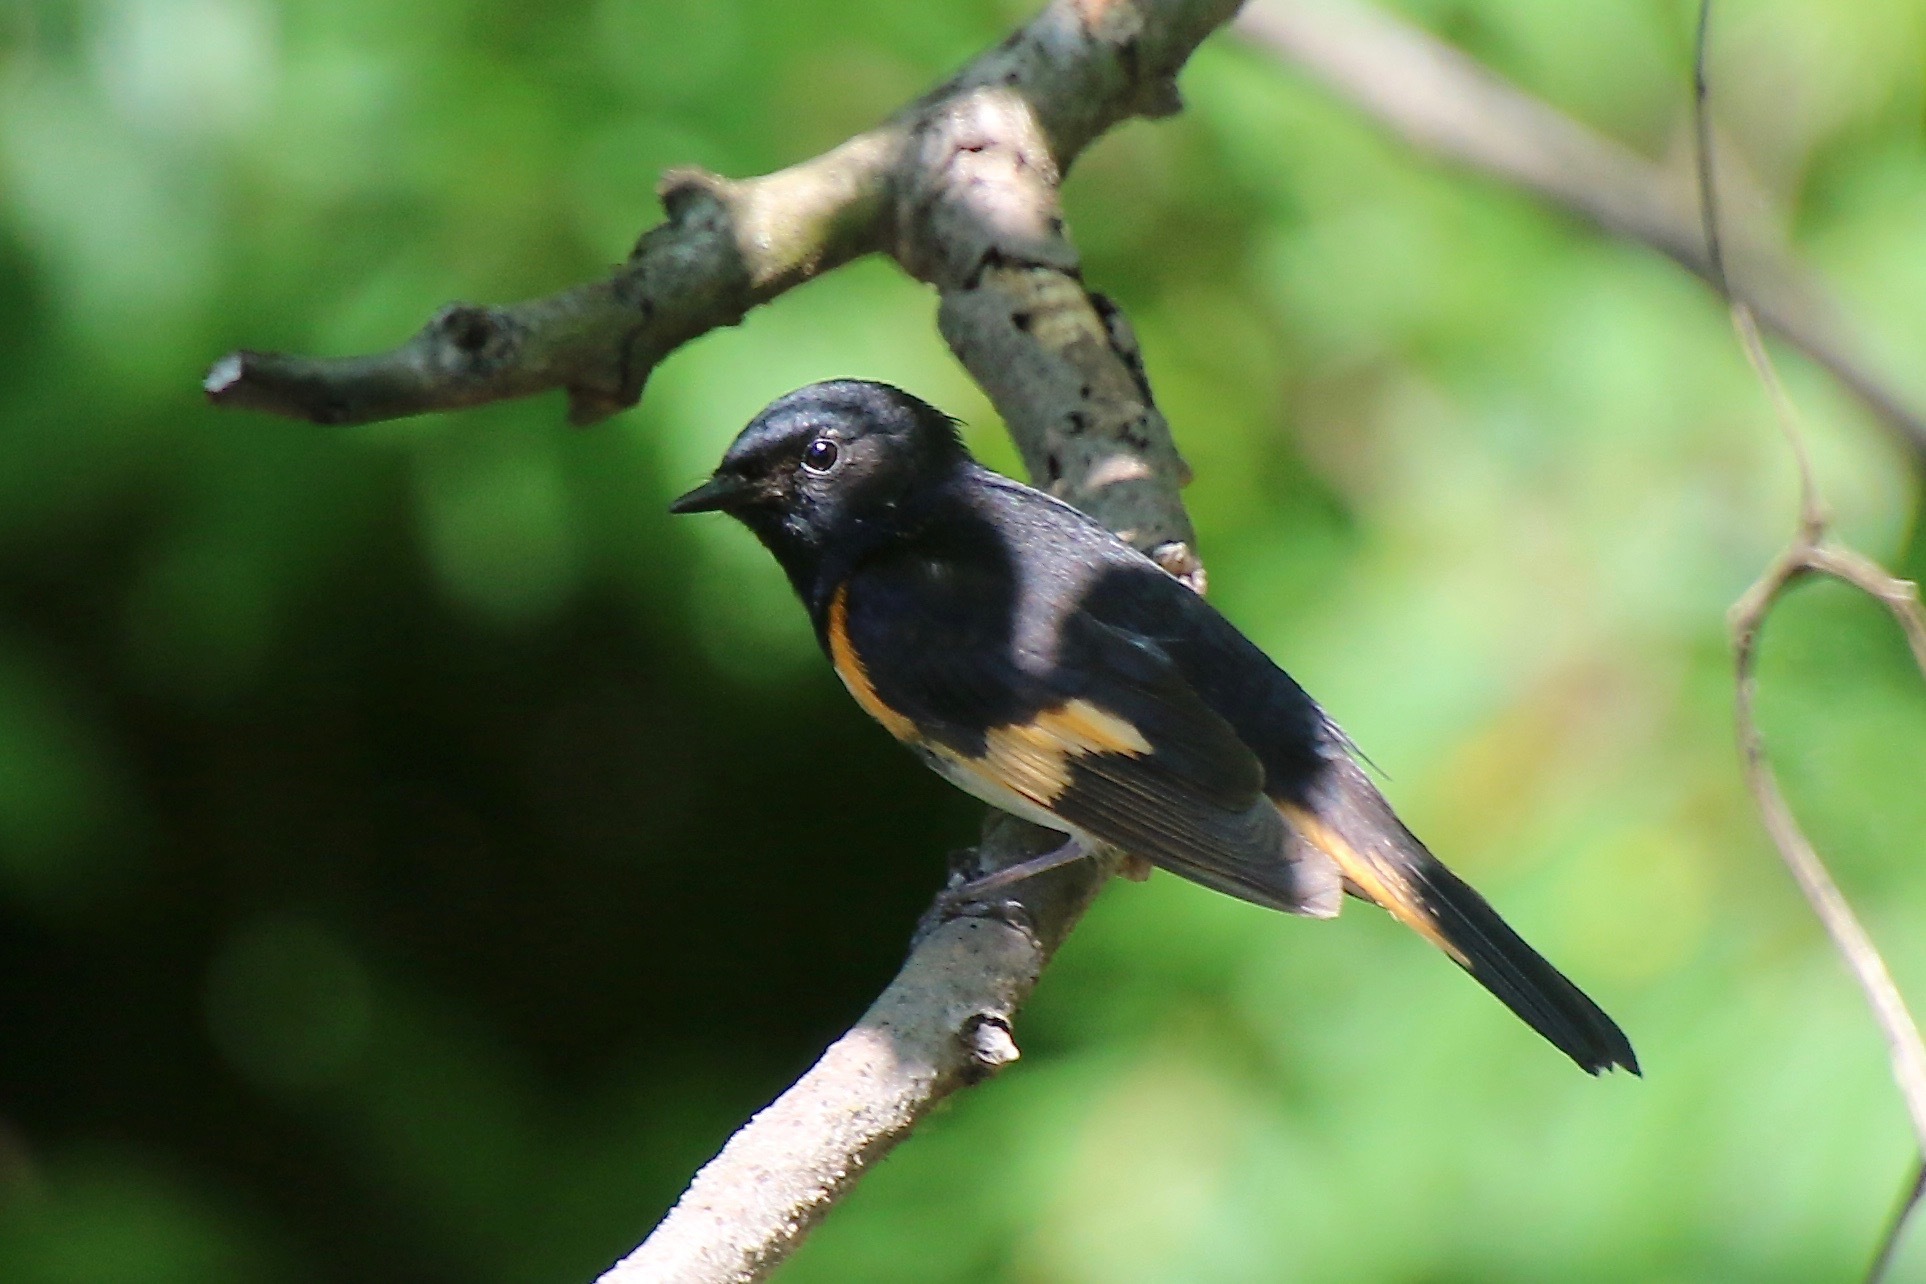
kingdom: Animalia
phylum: Chordata
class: Aves
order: Passeriformes
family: Parulidae
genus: Setophaga
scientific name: Setophaga ruticilla
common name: American redstart
